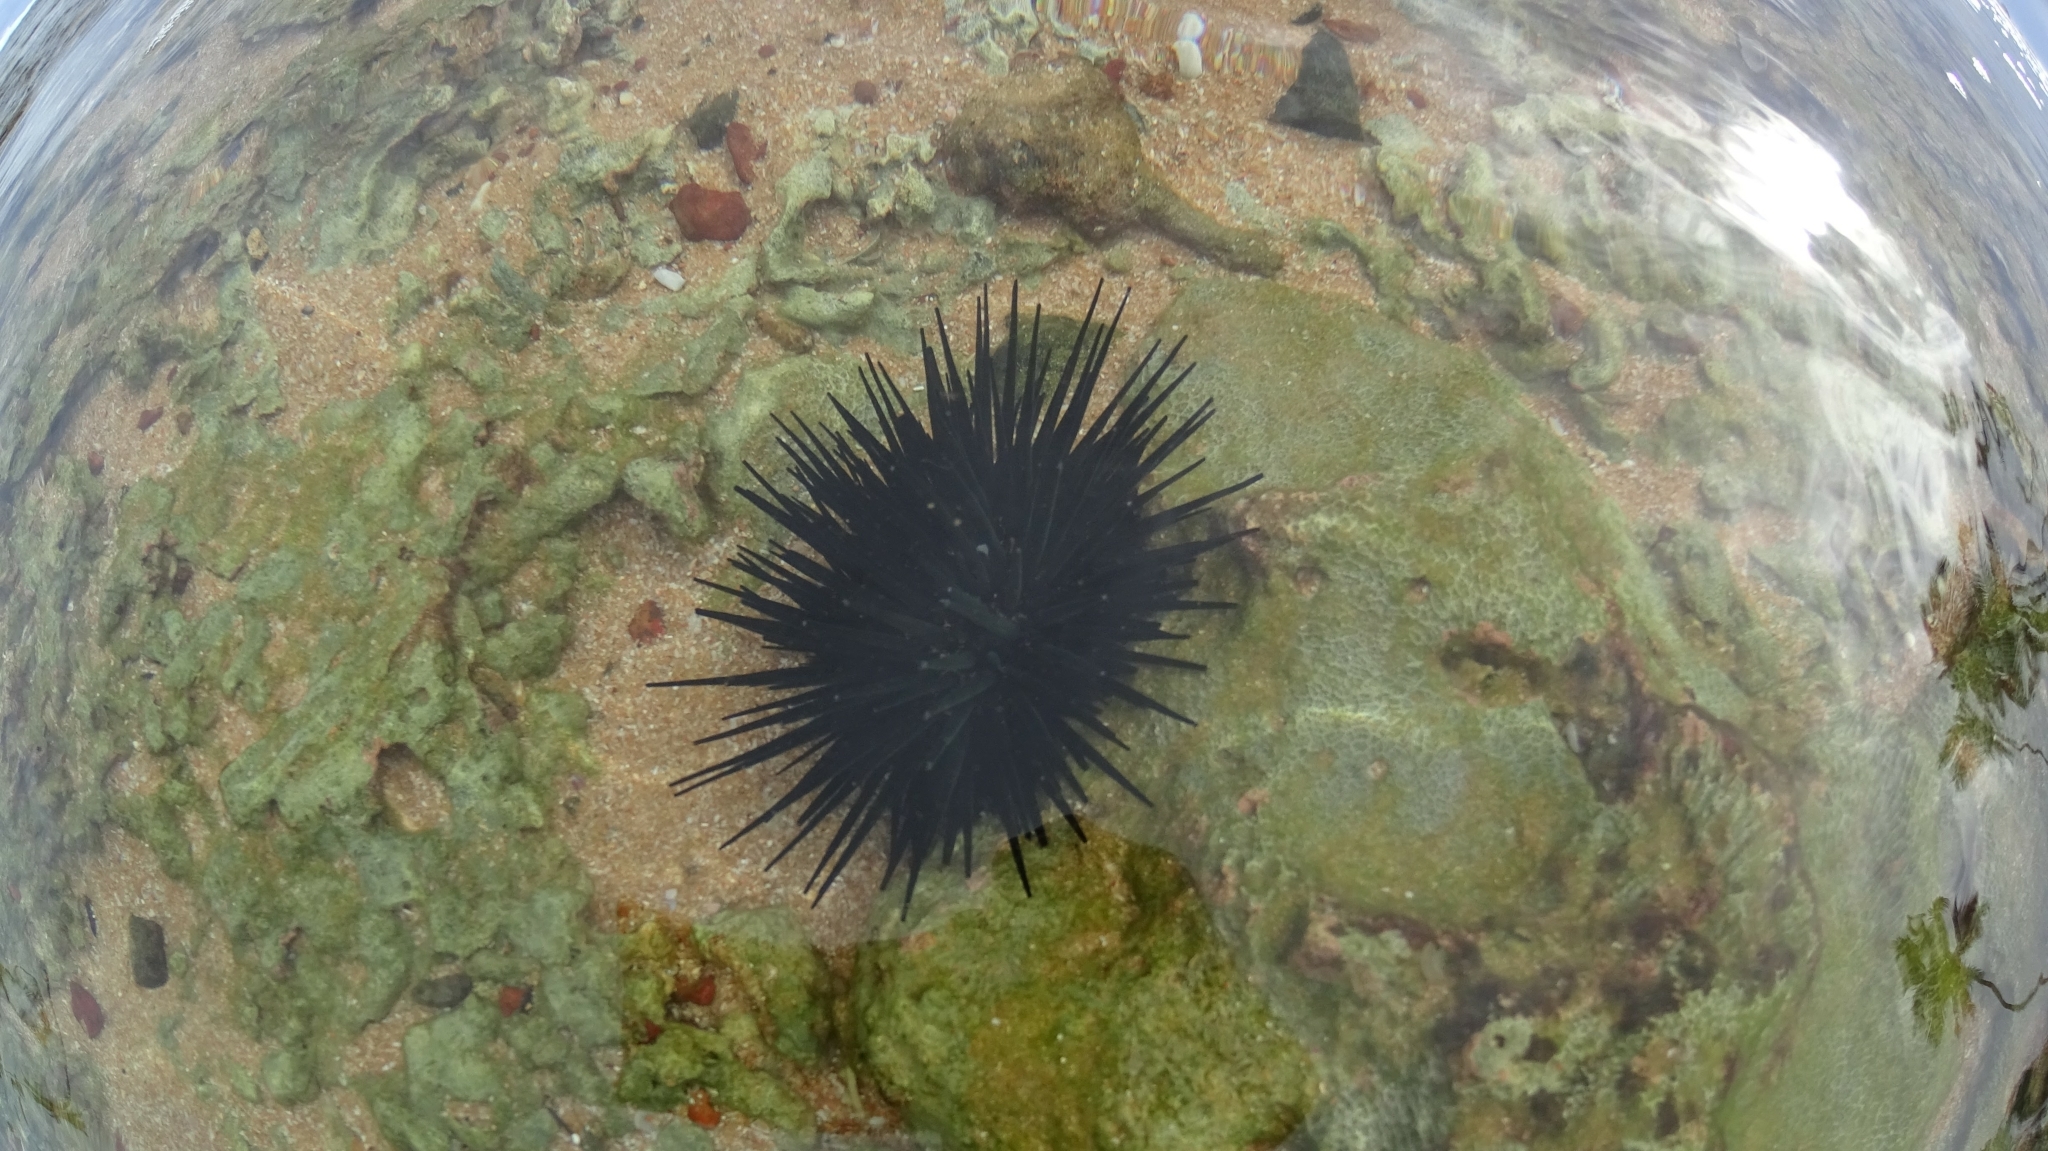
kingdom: Animalia
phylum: Echinodermata
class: Echinoidea
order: Stomopneustoida
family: Stomopneustidae
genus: Stomopneustes
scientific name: Stomopneustes variolaris
